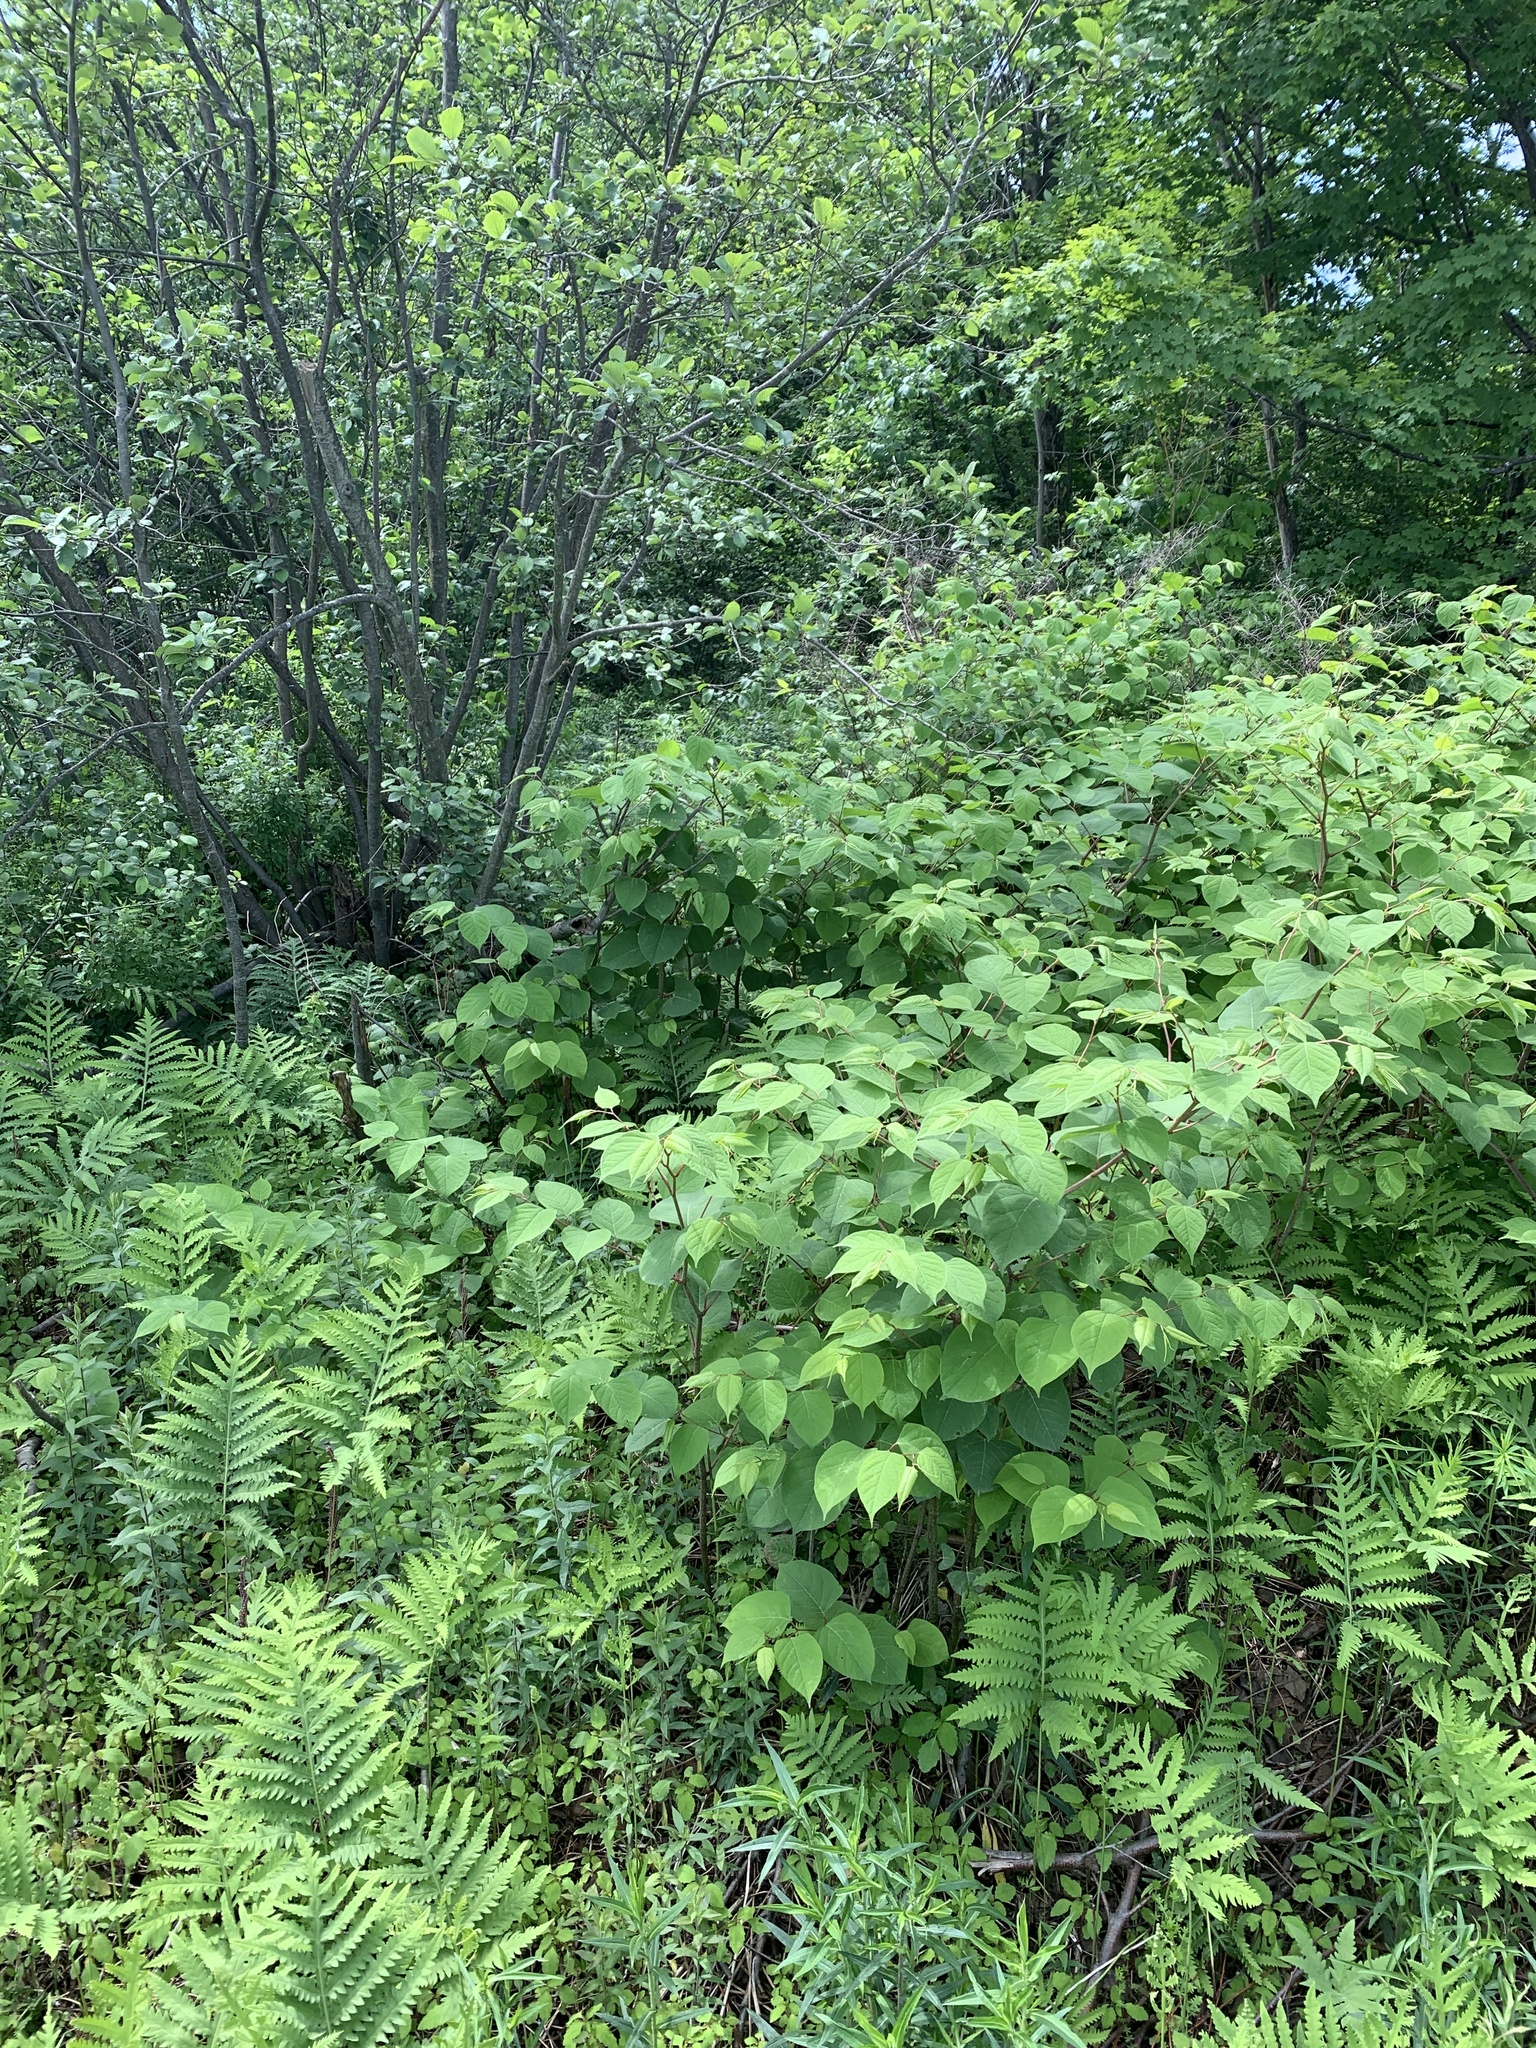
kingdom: Plantae
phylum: Tracheophyta
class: Magnoliopsida
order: Caryophyllales
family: Polygonaceae
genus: Reynoutria
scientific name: Reynoutria japonica
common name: Japanese knotweed
